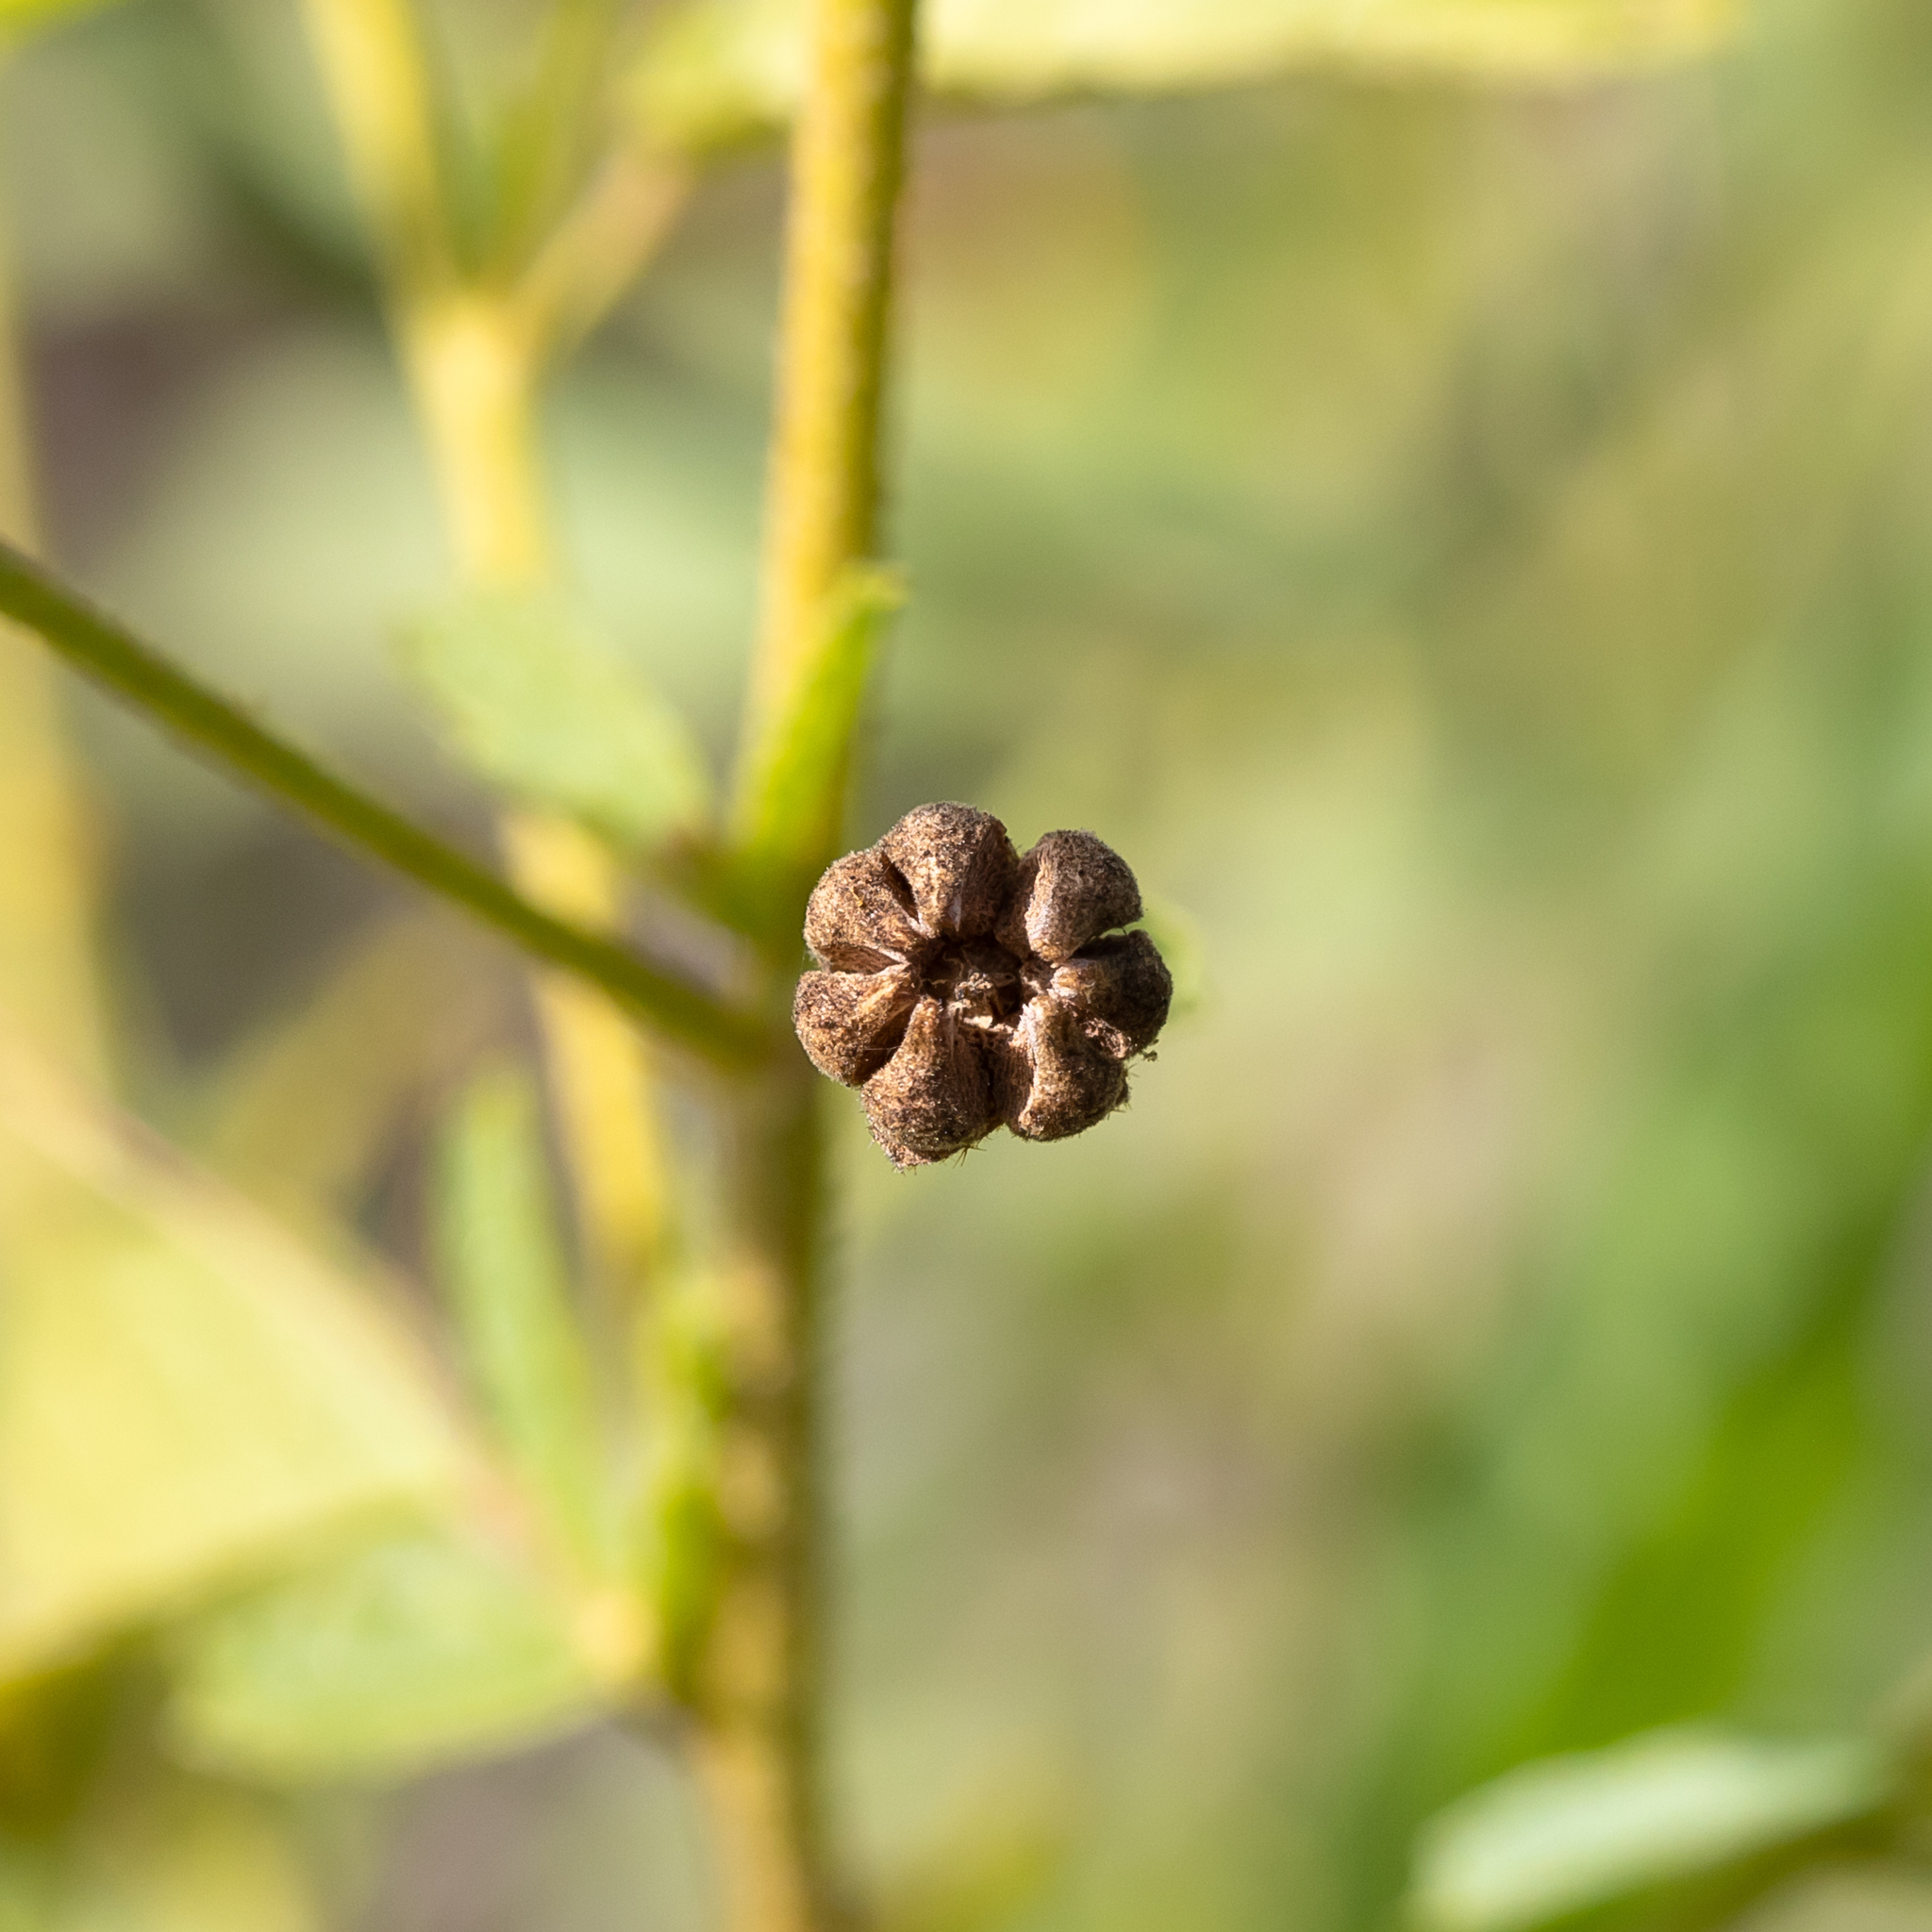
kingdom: Plantae
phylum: Tracheophyta
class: Magnoliopsida
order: Malvales
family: Malvaceae
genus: Sida
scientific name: Sida trichopoda
